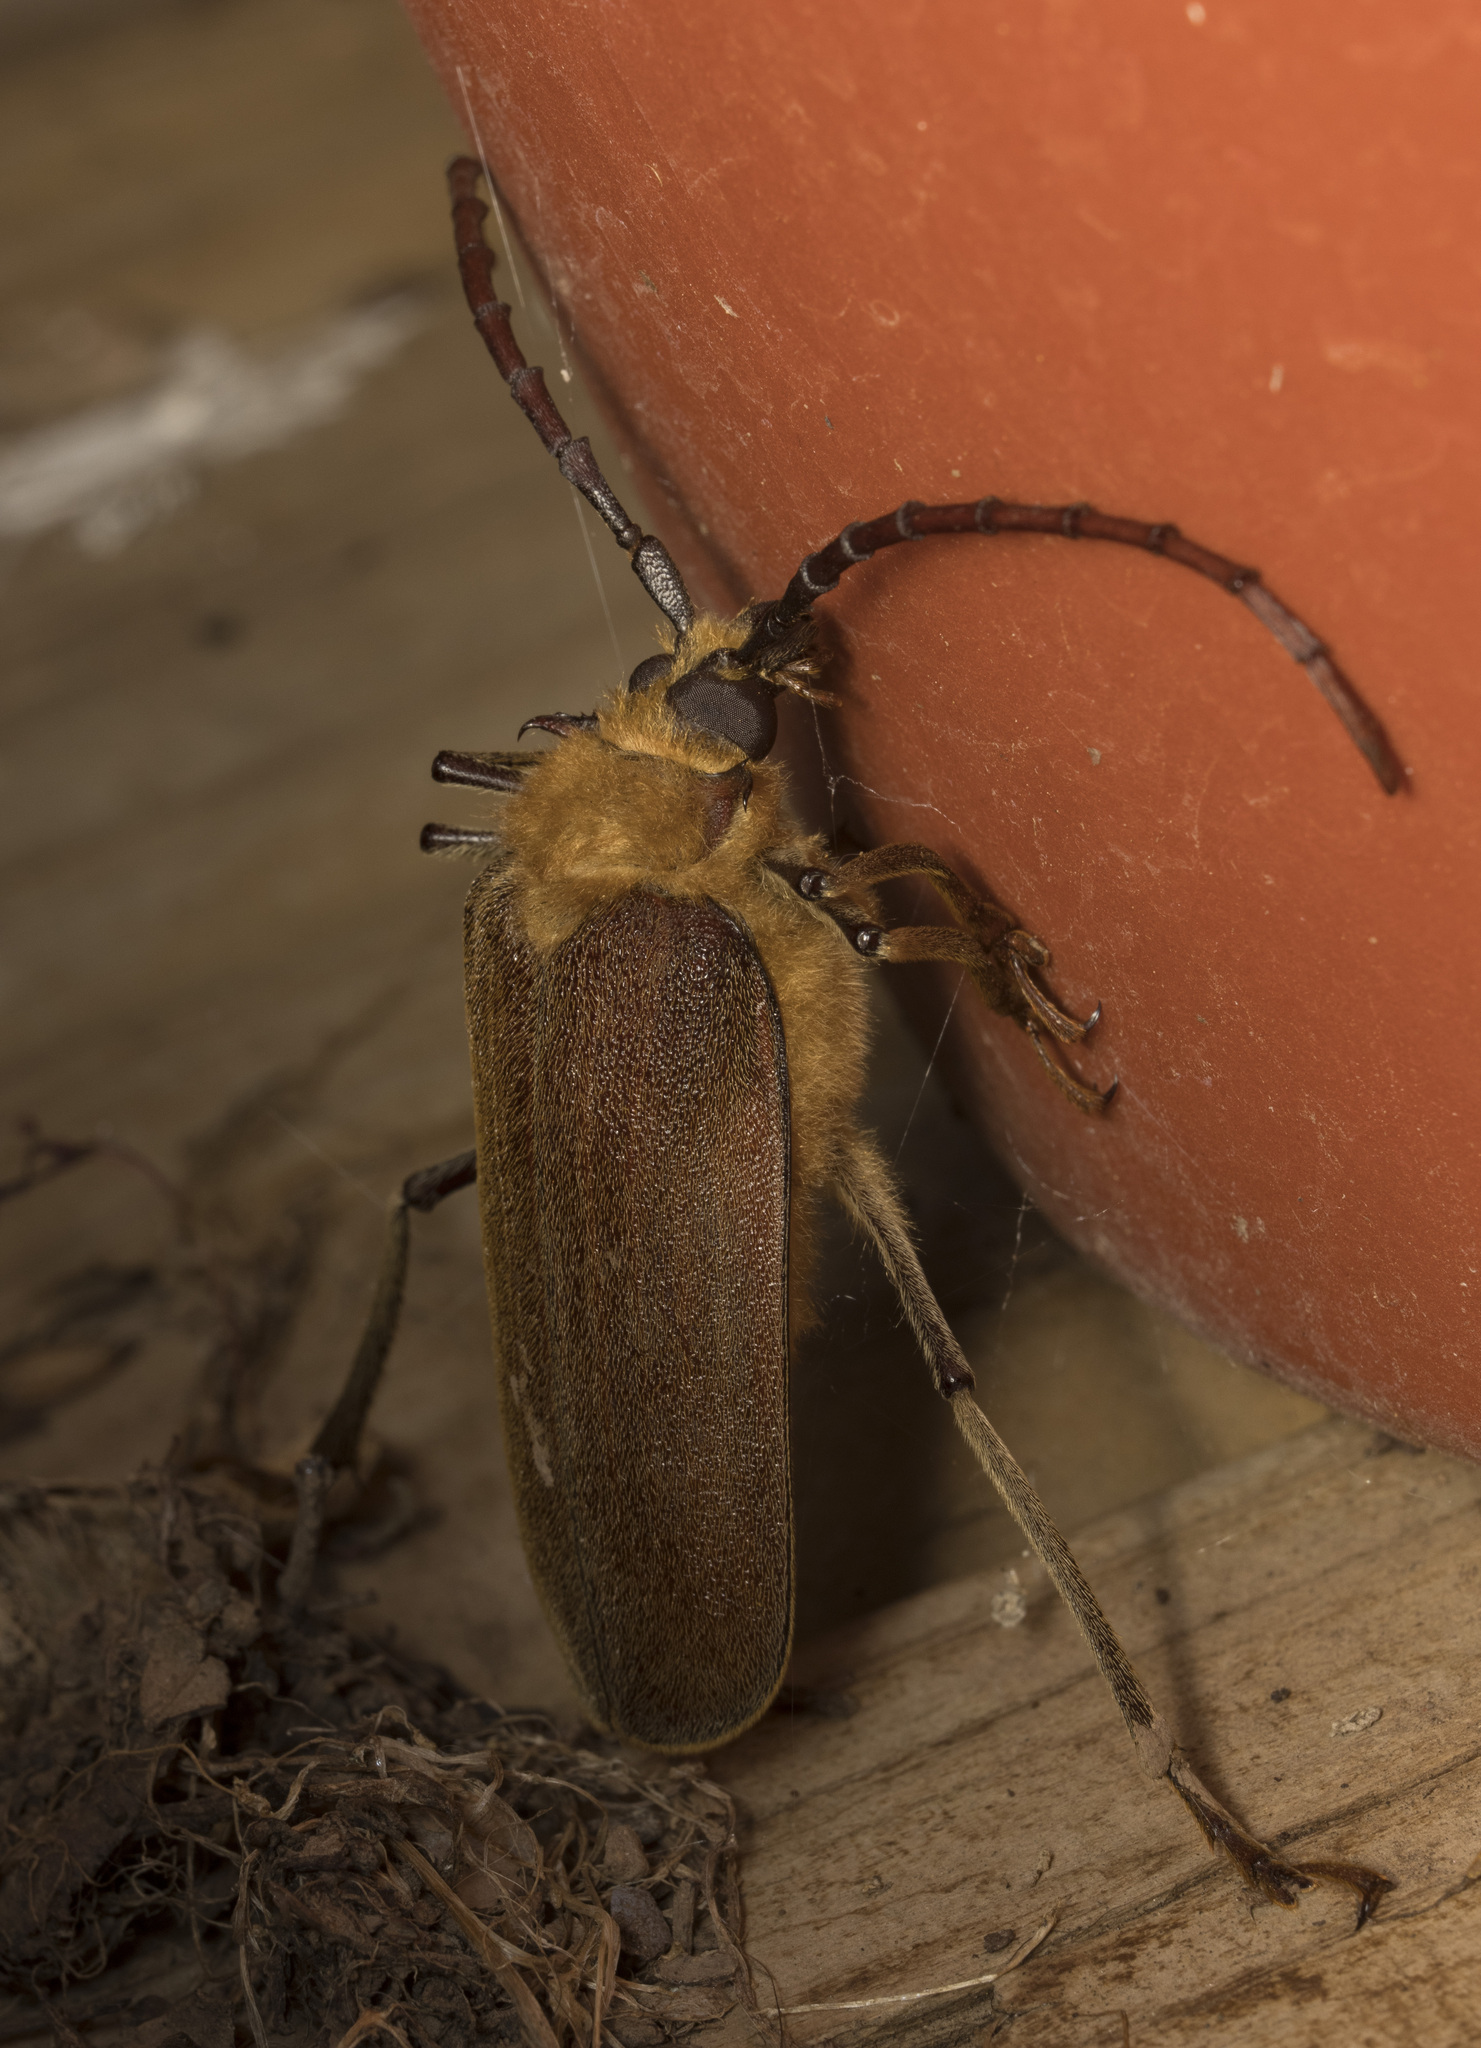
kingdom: Animalia
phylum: Arthropoda
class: Insecta
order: Coleoptera
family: Cerambycidae
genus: Acanthinodera
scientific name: Acanthinodera cumingii
